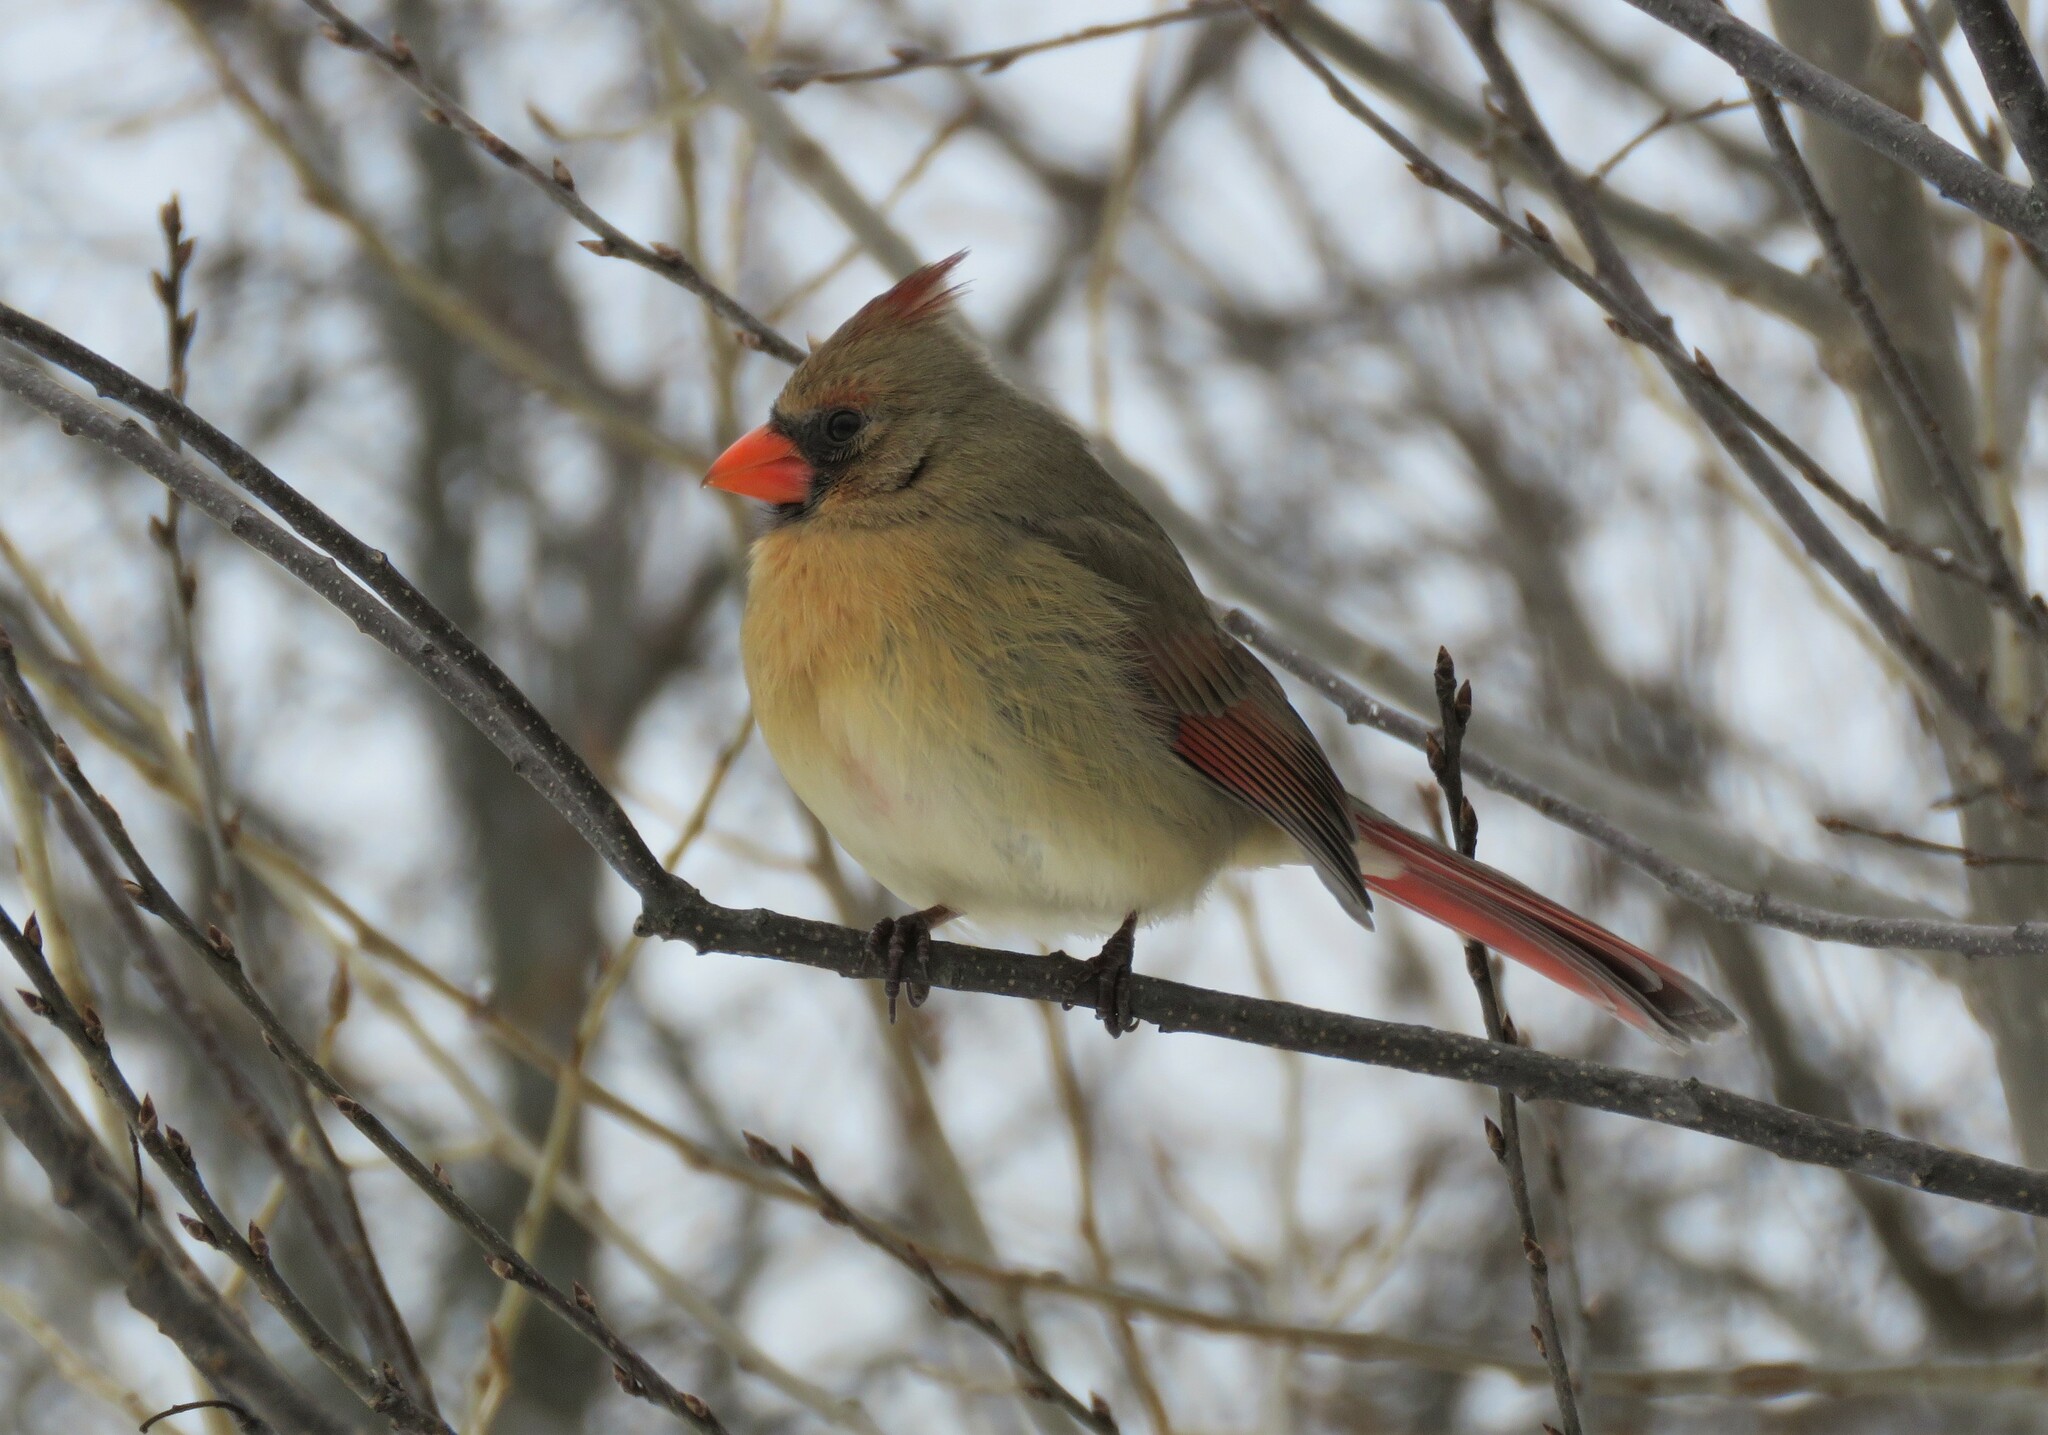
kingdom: Animalia
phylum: Chordata
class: Aves
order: Passeriformes
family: Cardinalidae
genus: Cardinalis
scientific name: Cardinalis cardinalis
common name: Northern cardinal
